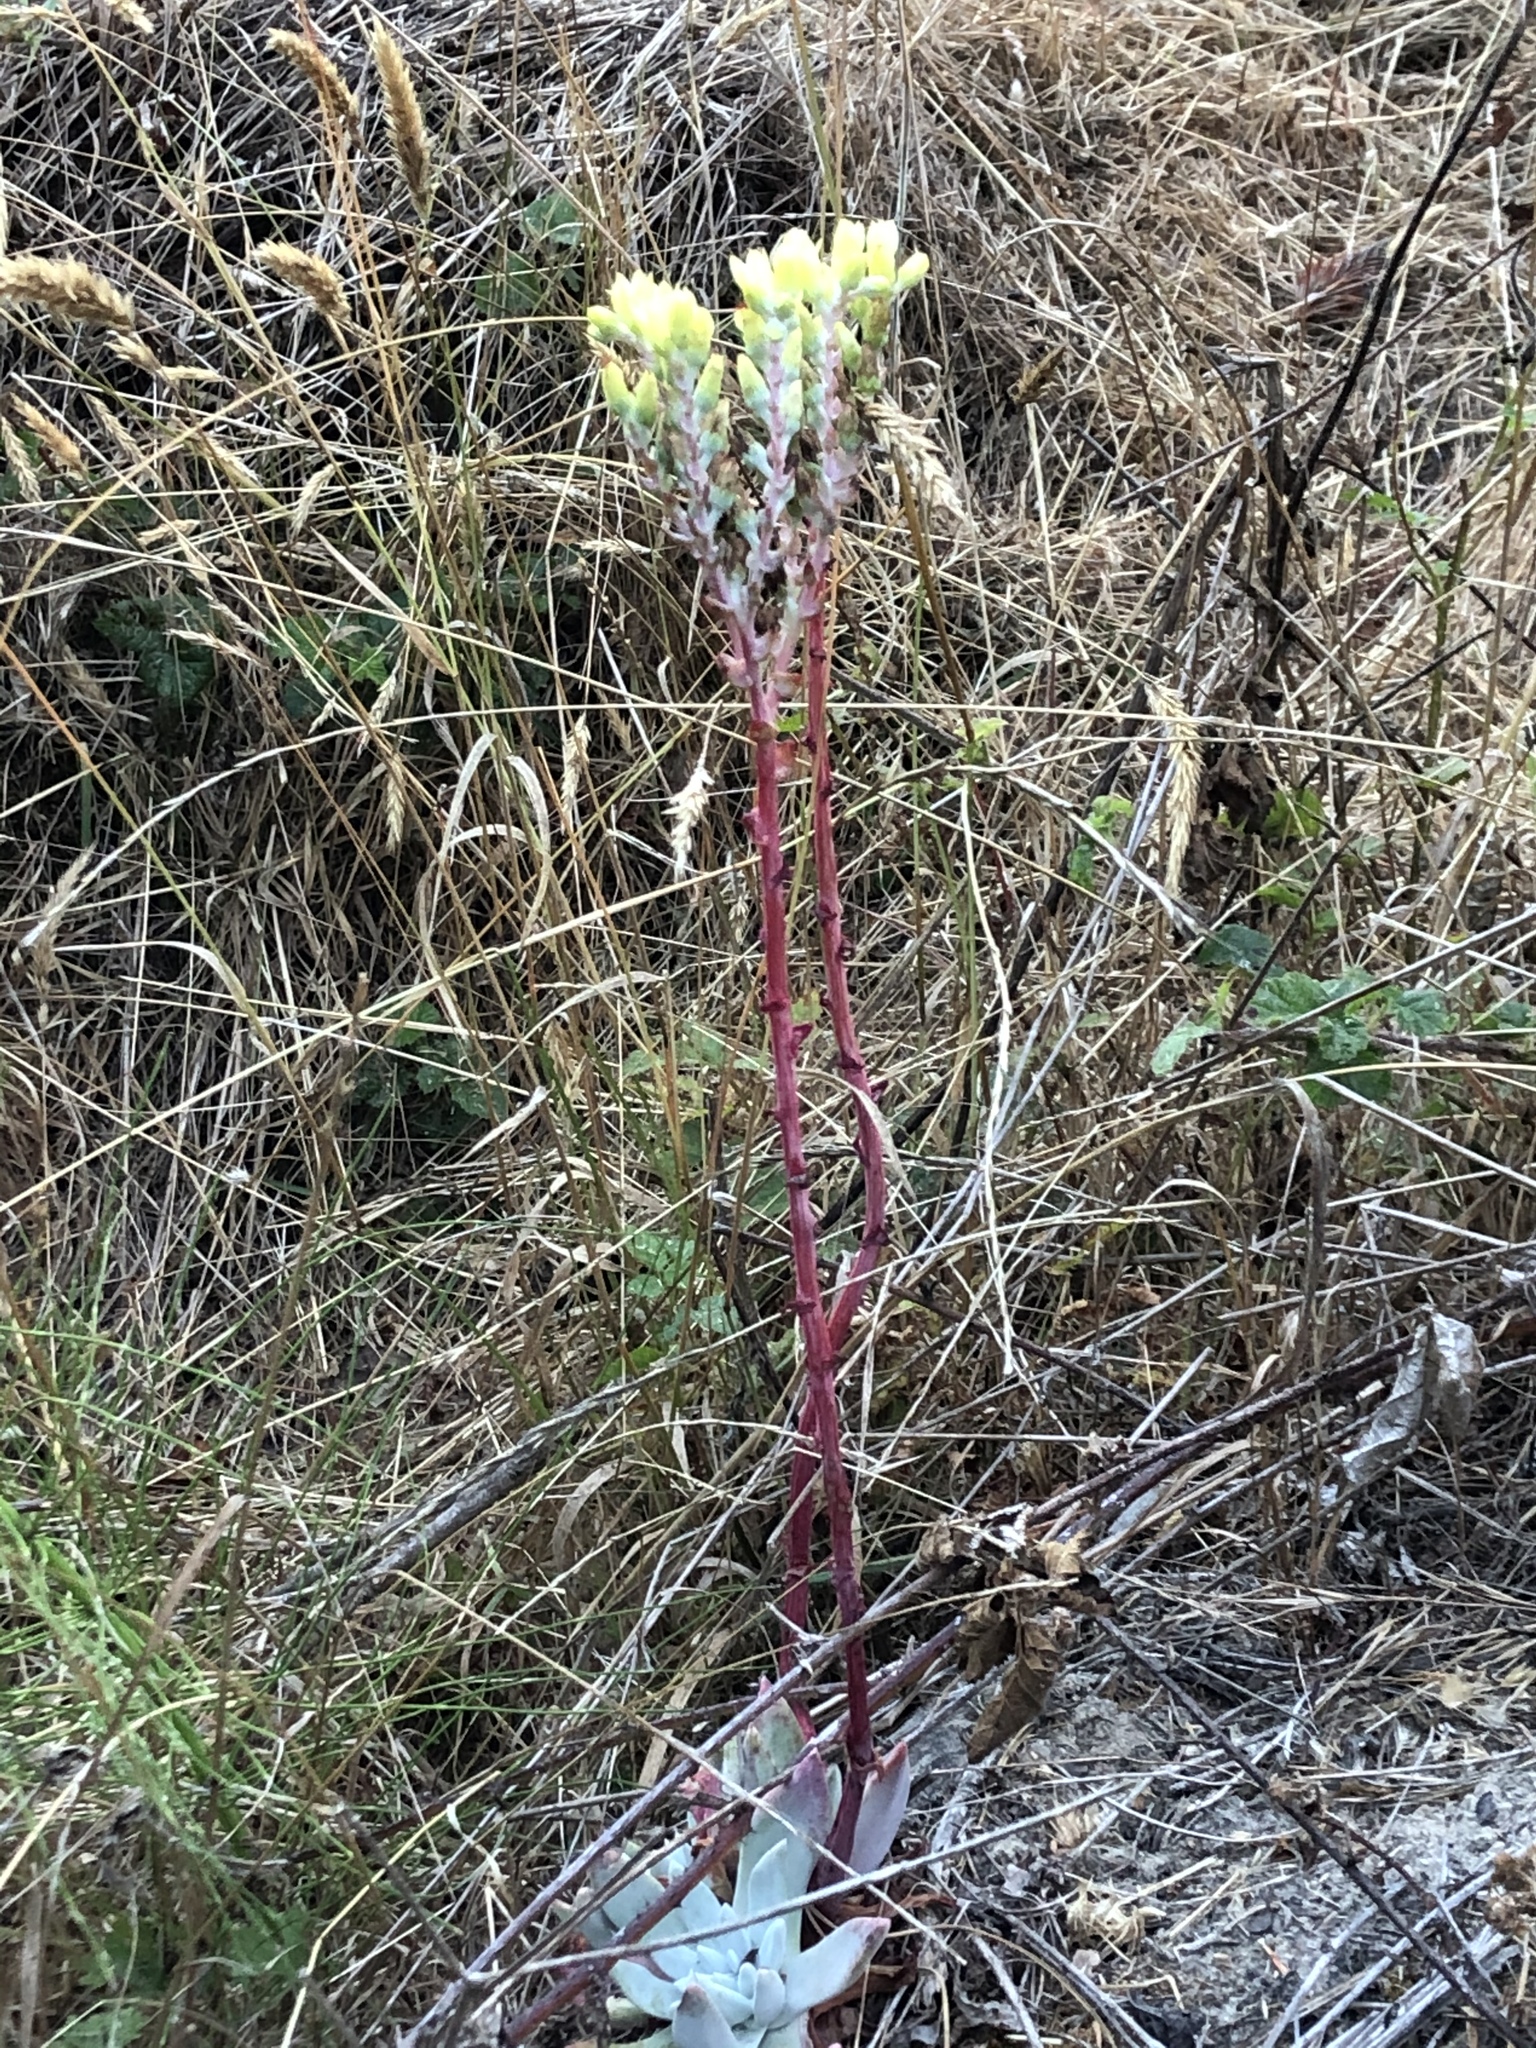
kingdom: Plantae
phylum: Tracheophyta
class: Magnoliopsida
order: Saxifragales
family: Crassulaceae
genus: Dudleya
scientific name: Dudleya cymosa
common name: Canyon dudleya
